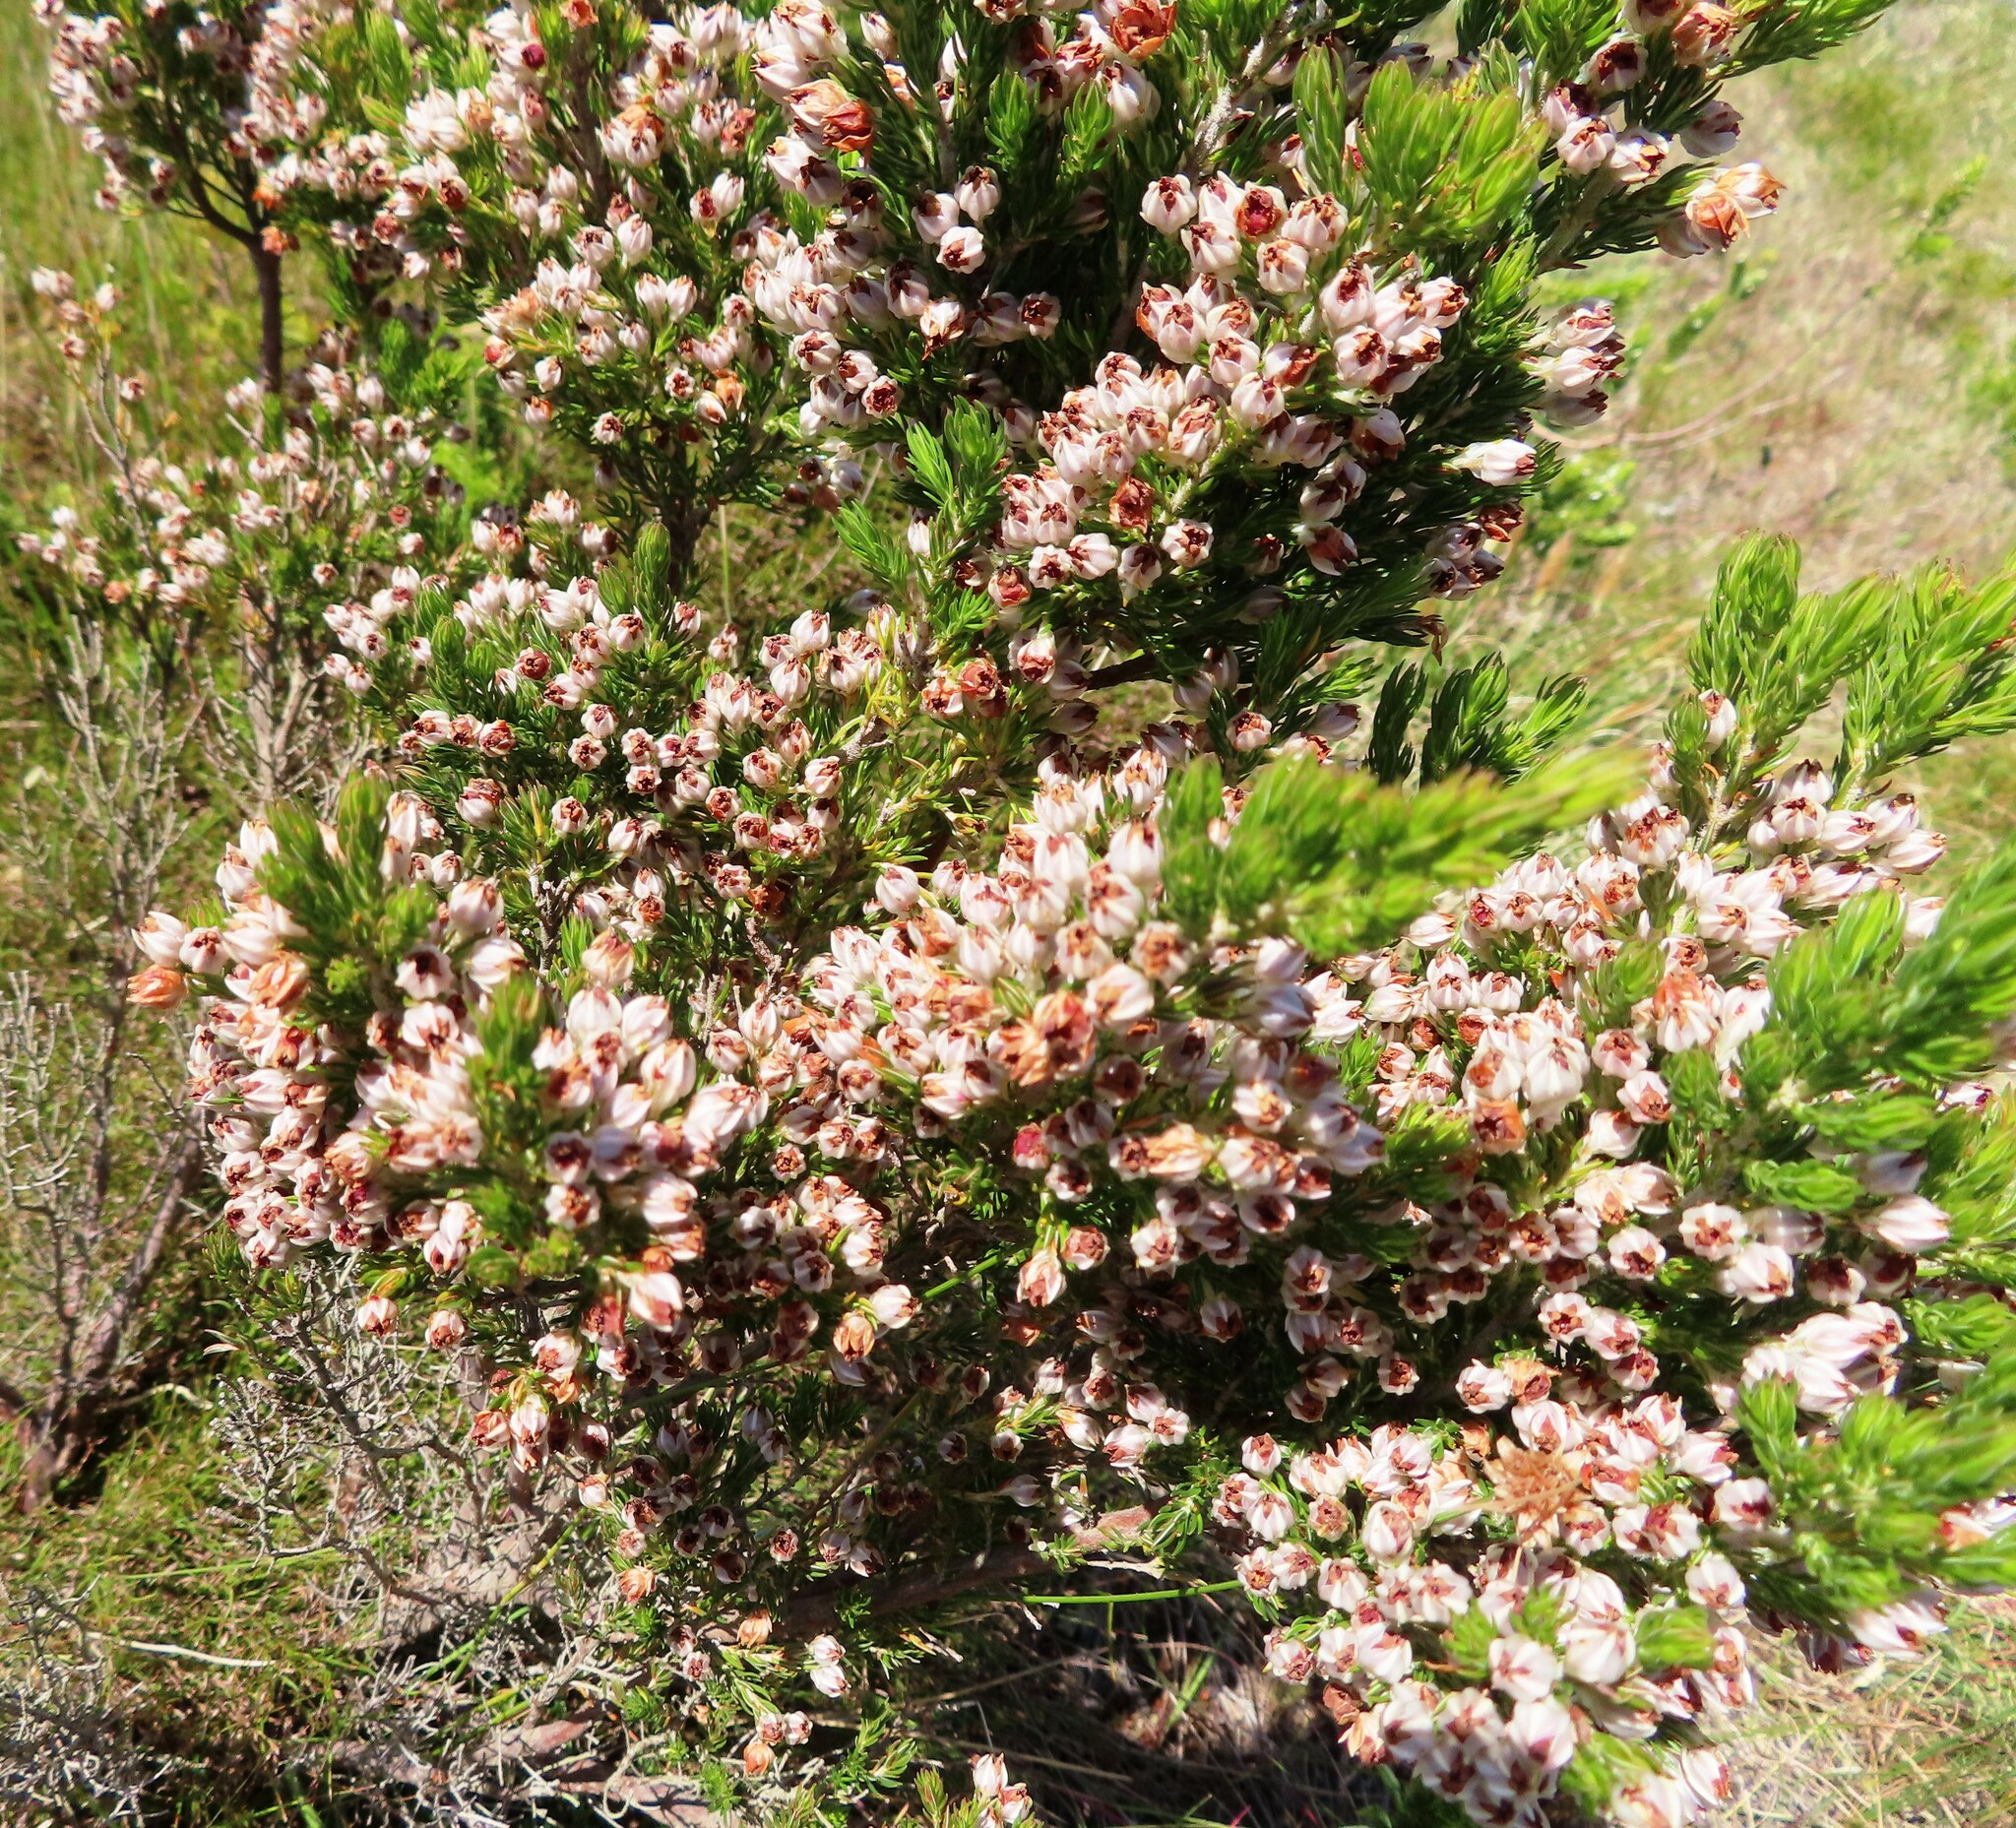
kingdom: Plantae
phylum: Tracheophyta
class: Magnoliopsida
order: Ericales
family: Ericaceae
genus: Erica
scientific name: Erica triflora
